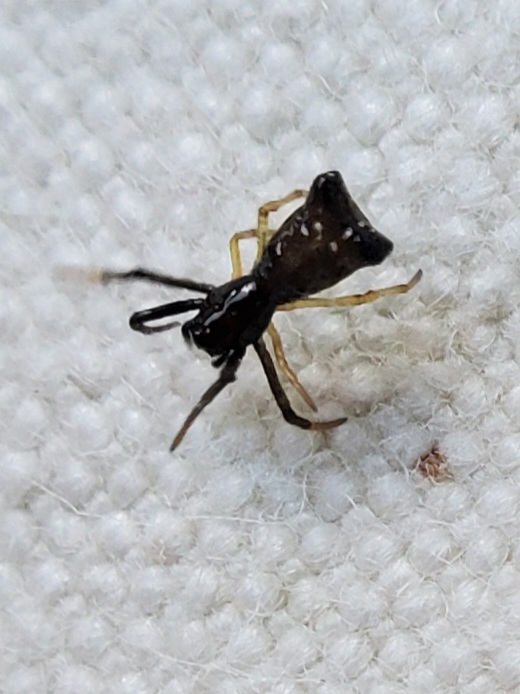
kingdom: Animalia
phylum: Arthropoda
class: Arachnida
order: Araneae
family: Araneidae
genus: Micrathena
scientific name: Micrathena sagittata
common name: Orb weavers
